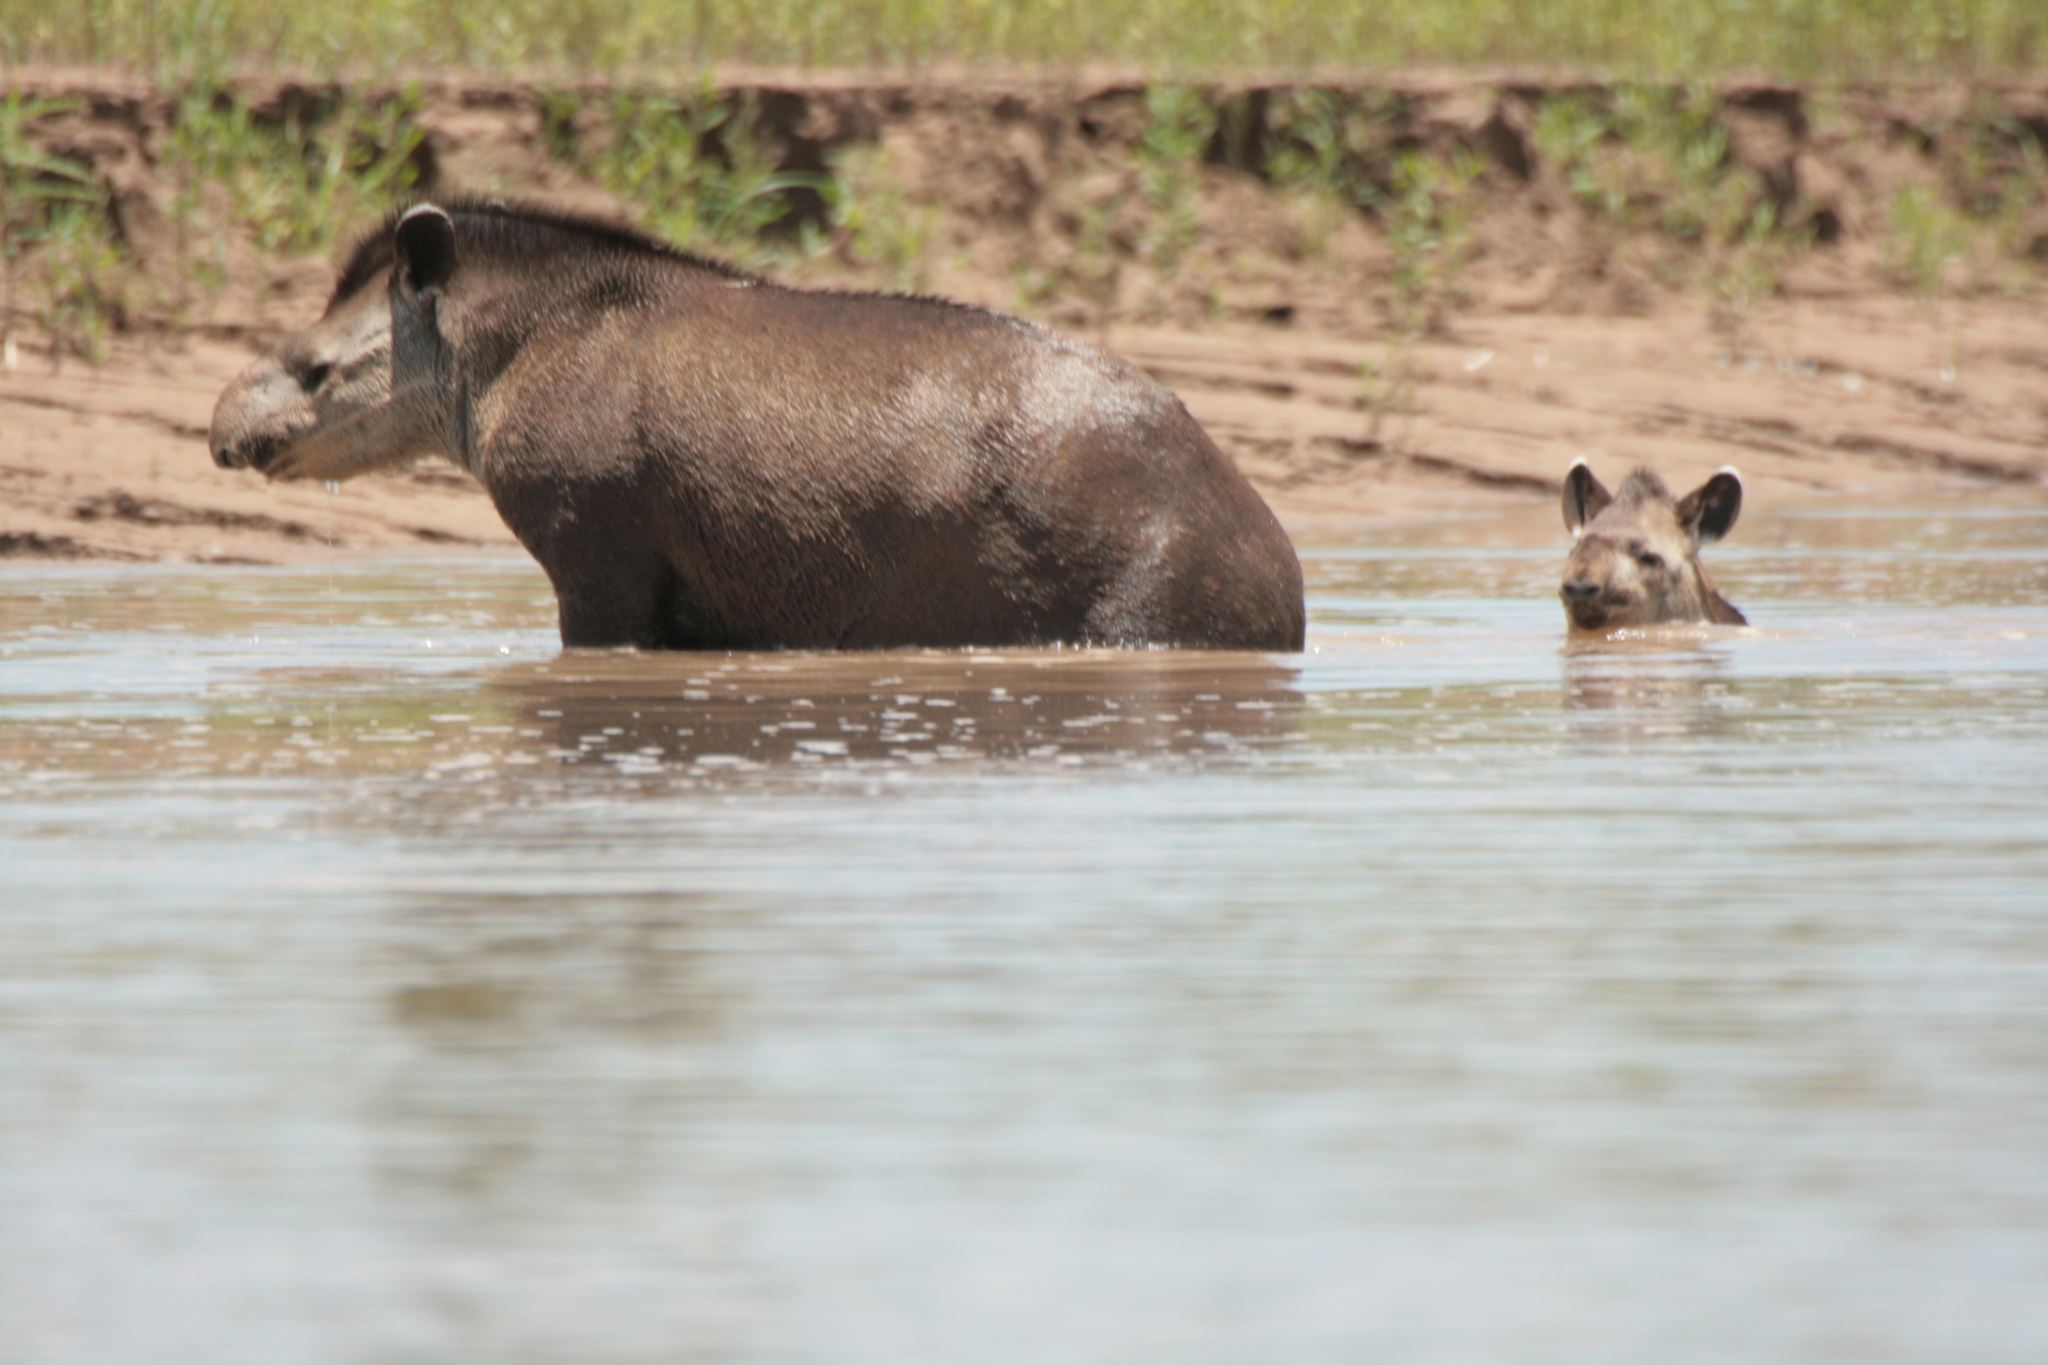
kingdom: Animalia
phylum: Chordata
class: Mammalia
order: Perissodactyla
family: Tapiridae
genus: Tapirus
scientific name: Tapirus terrestris
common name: Brazilian tapir
